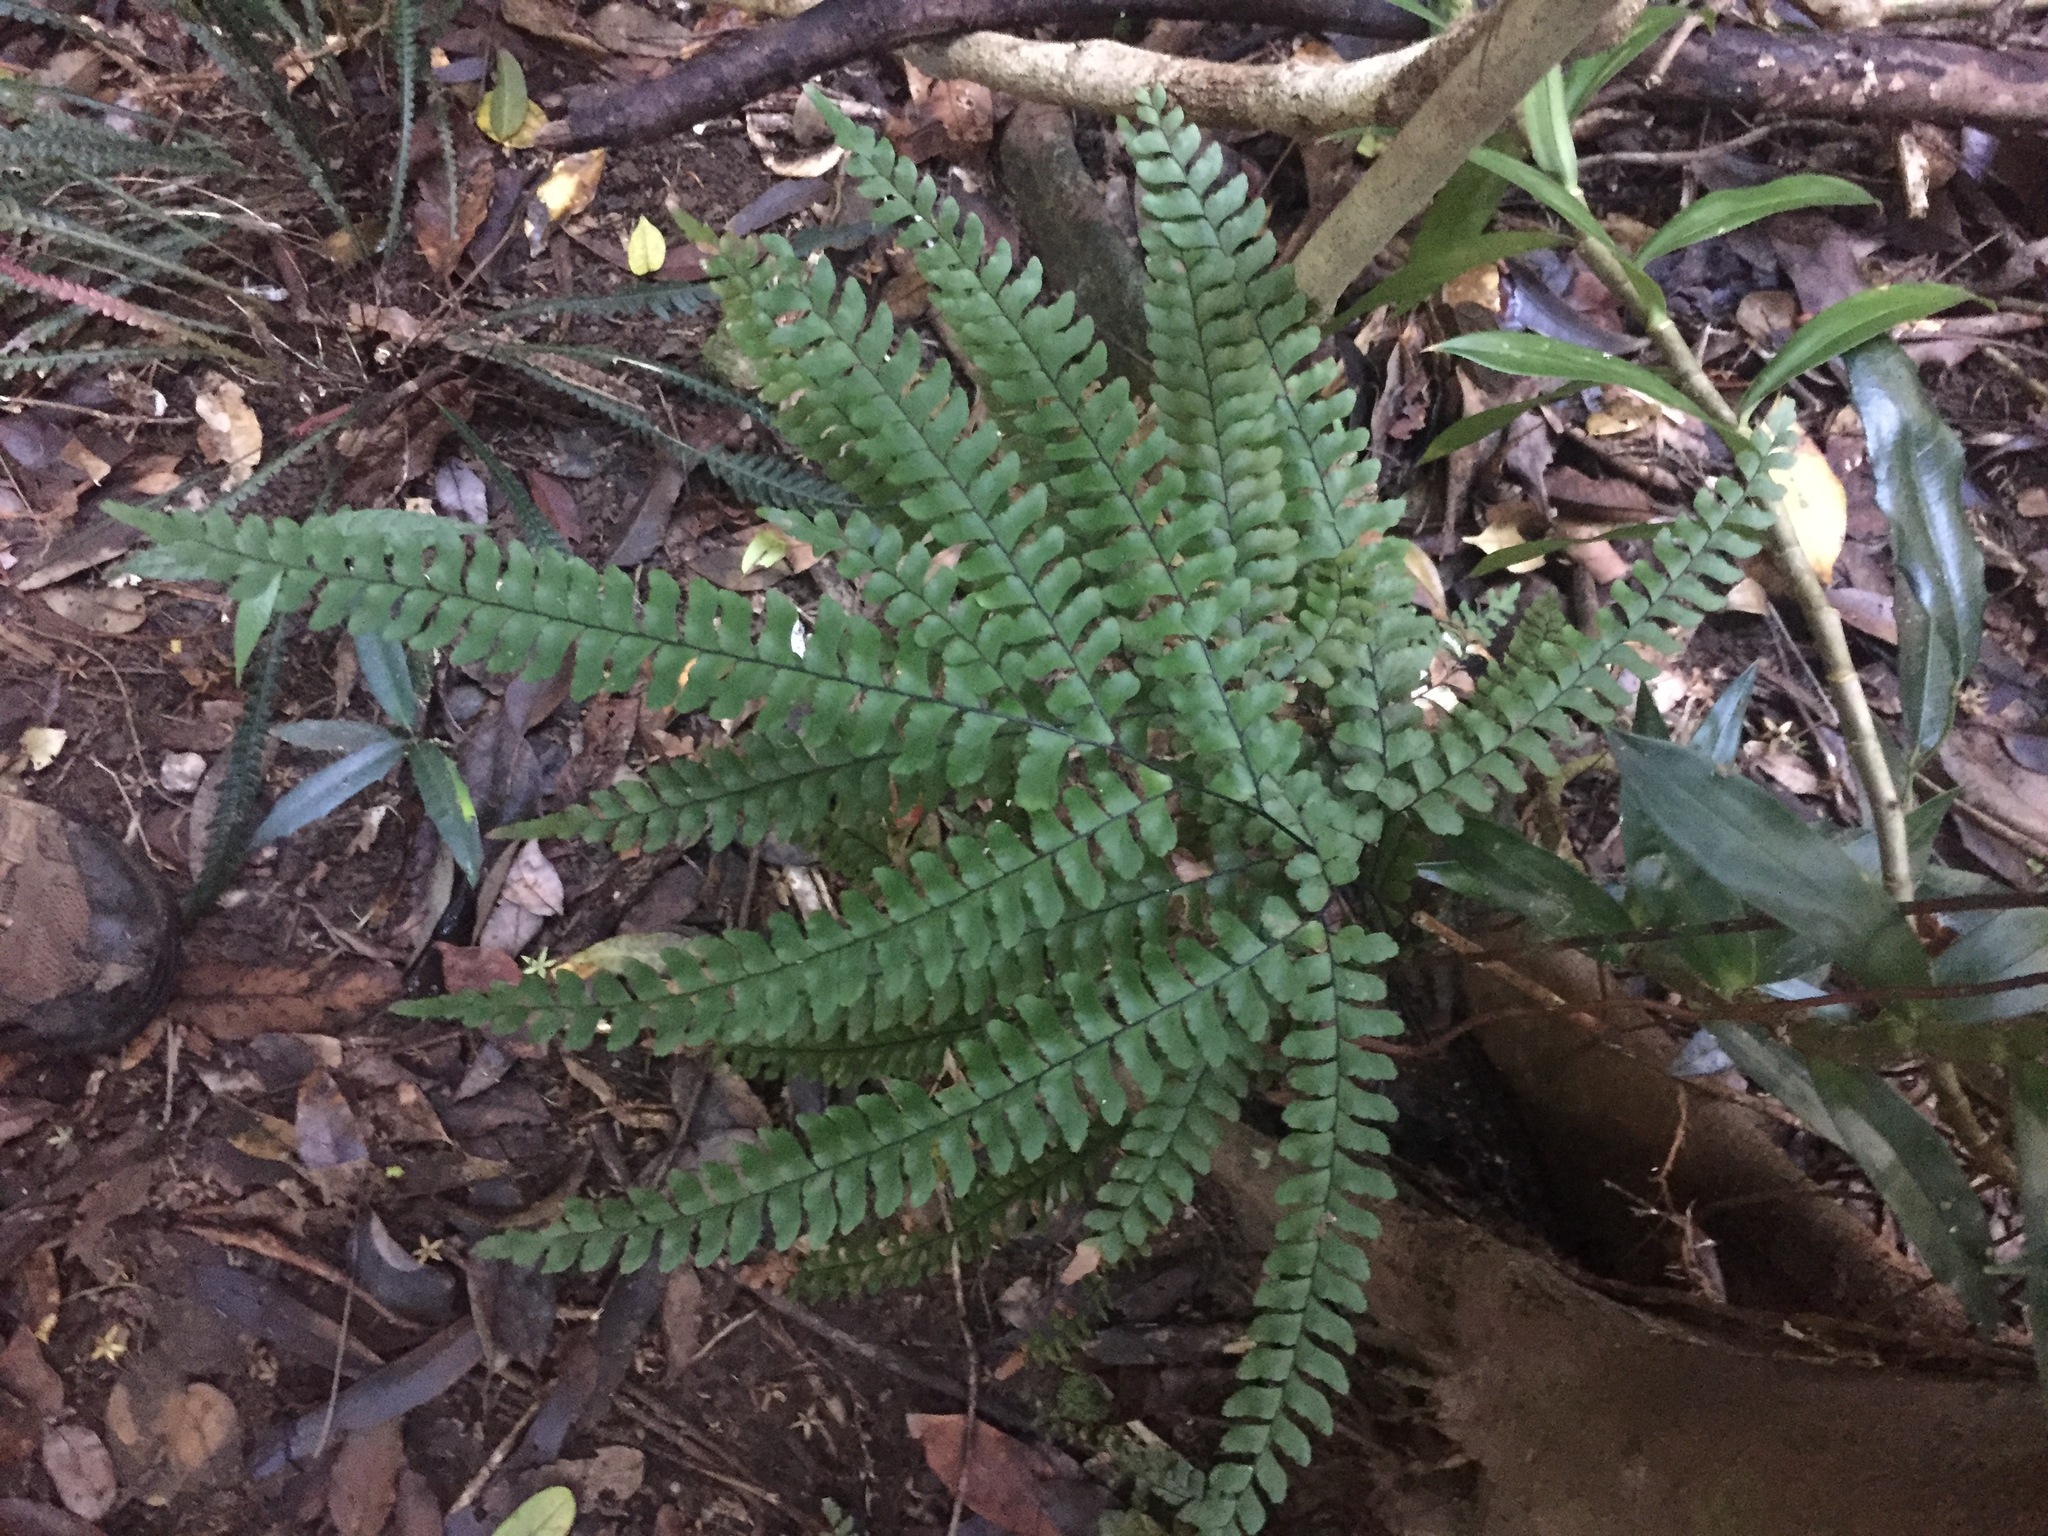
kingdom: Plantae
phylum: Tracheophyta
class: Polypodiopsida
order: Polypodiales
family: Pteridaceae
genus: Adiantum
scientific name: Adiantum silvaticum
